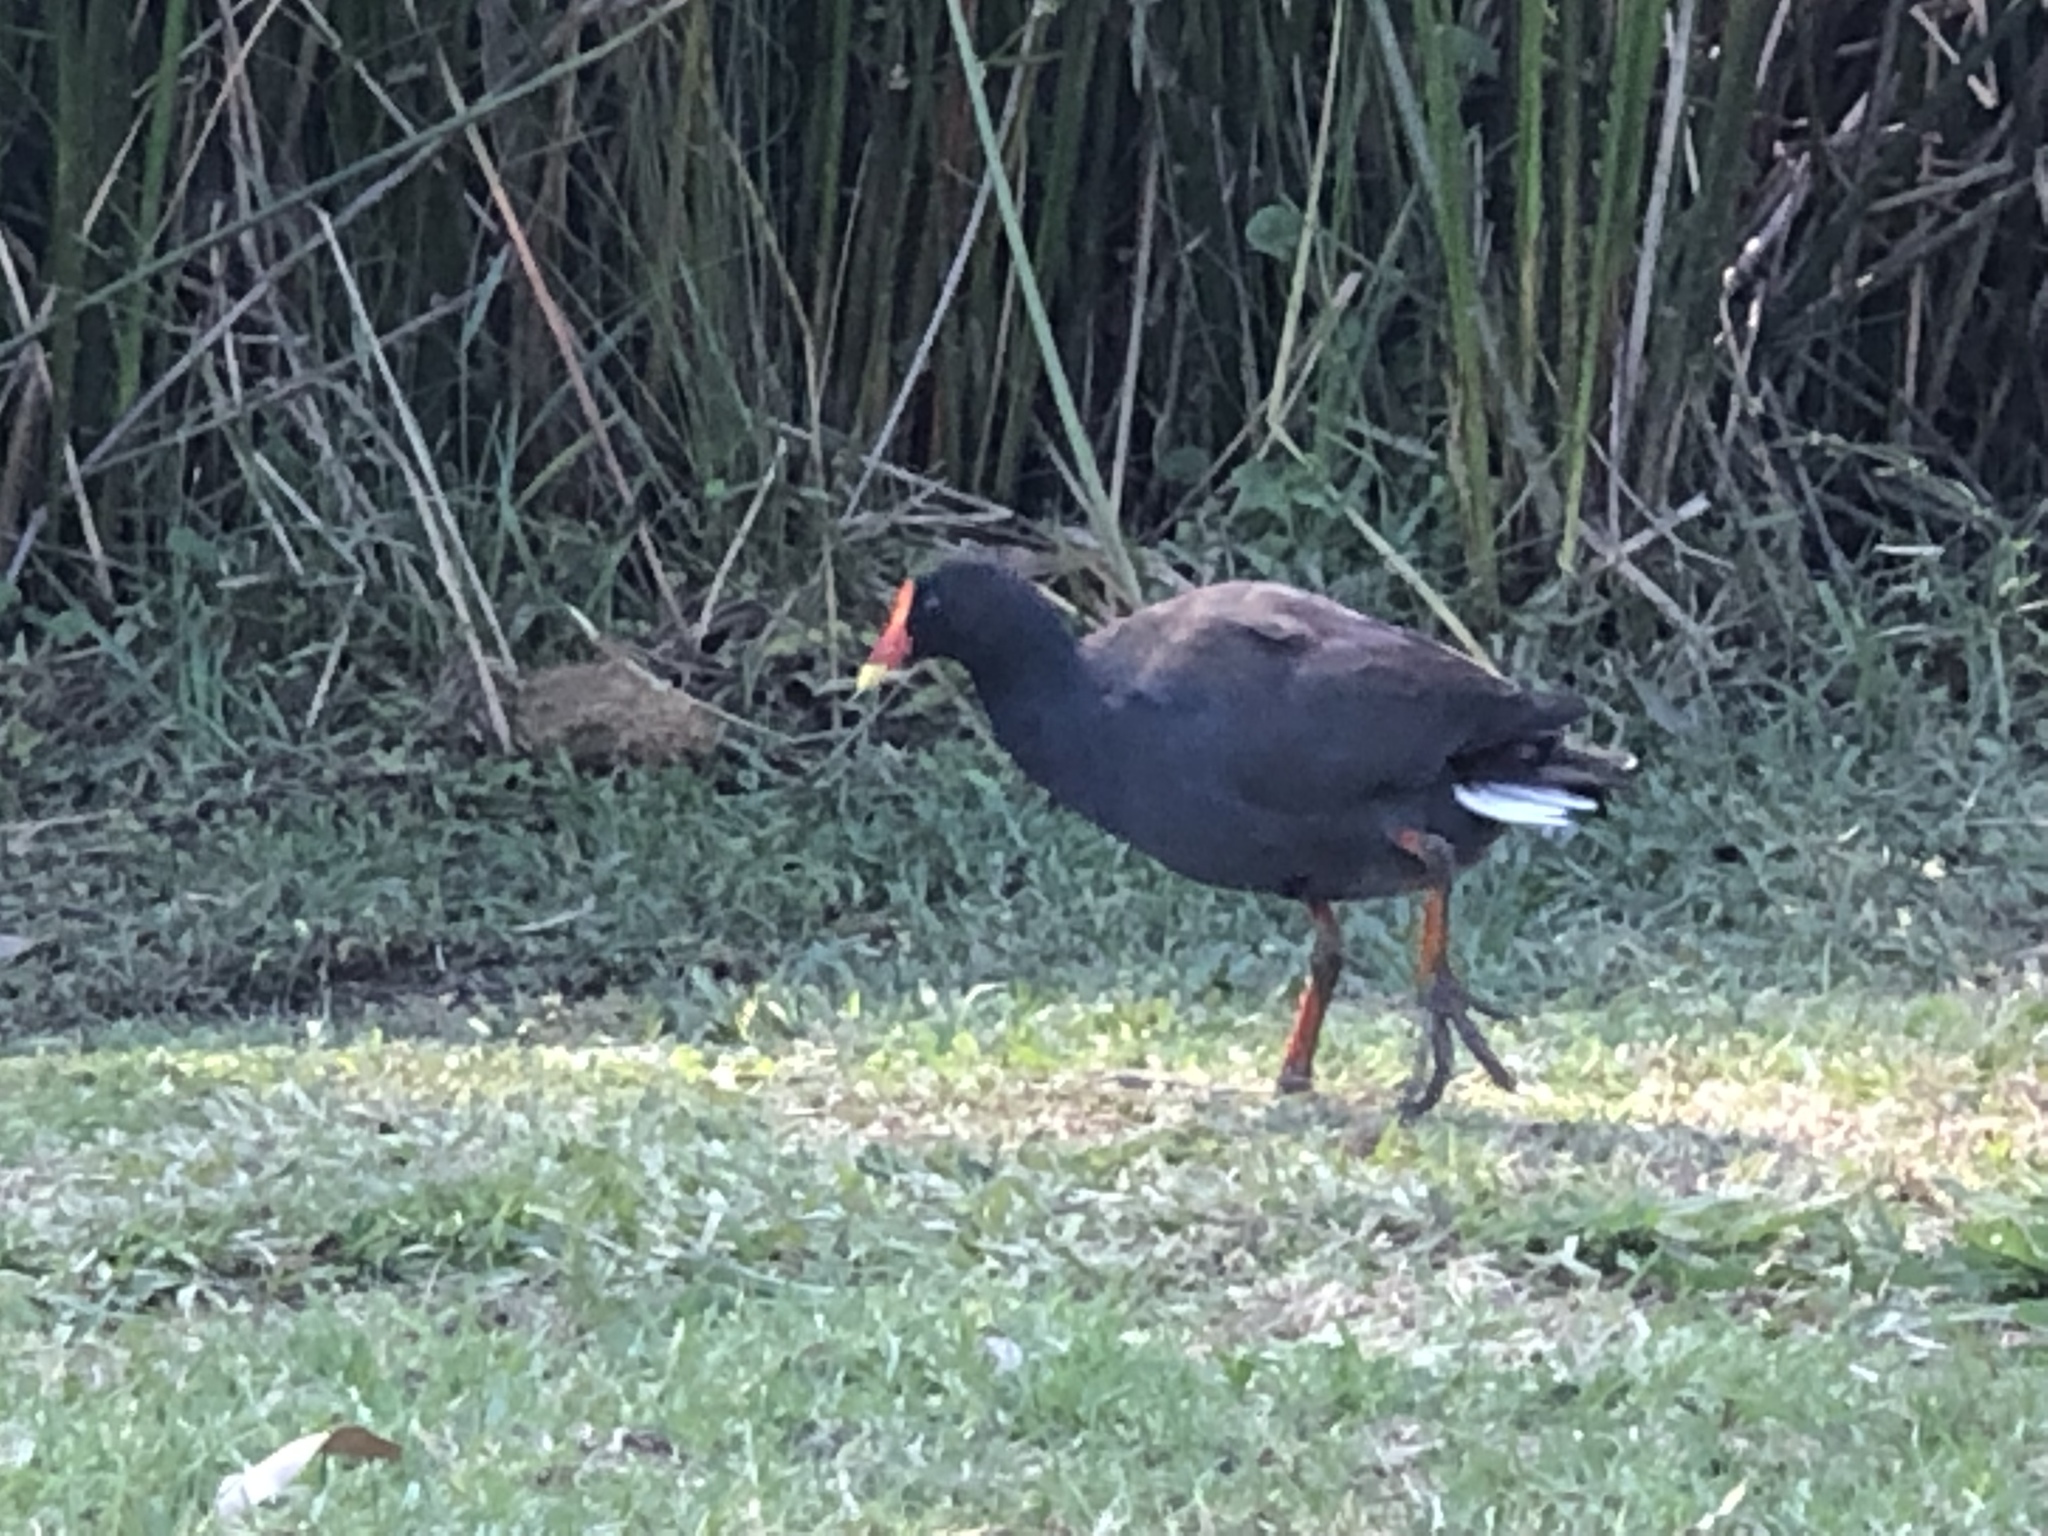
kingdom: Animalia
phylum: Chordata
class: Aves
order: Gruiformes
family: Rallidae
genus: Porphyrio
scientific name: Porphyrio melanotus
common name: Australasian swamphen
